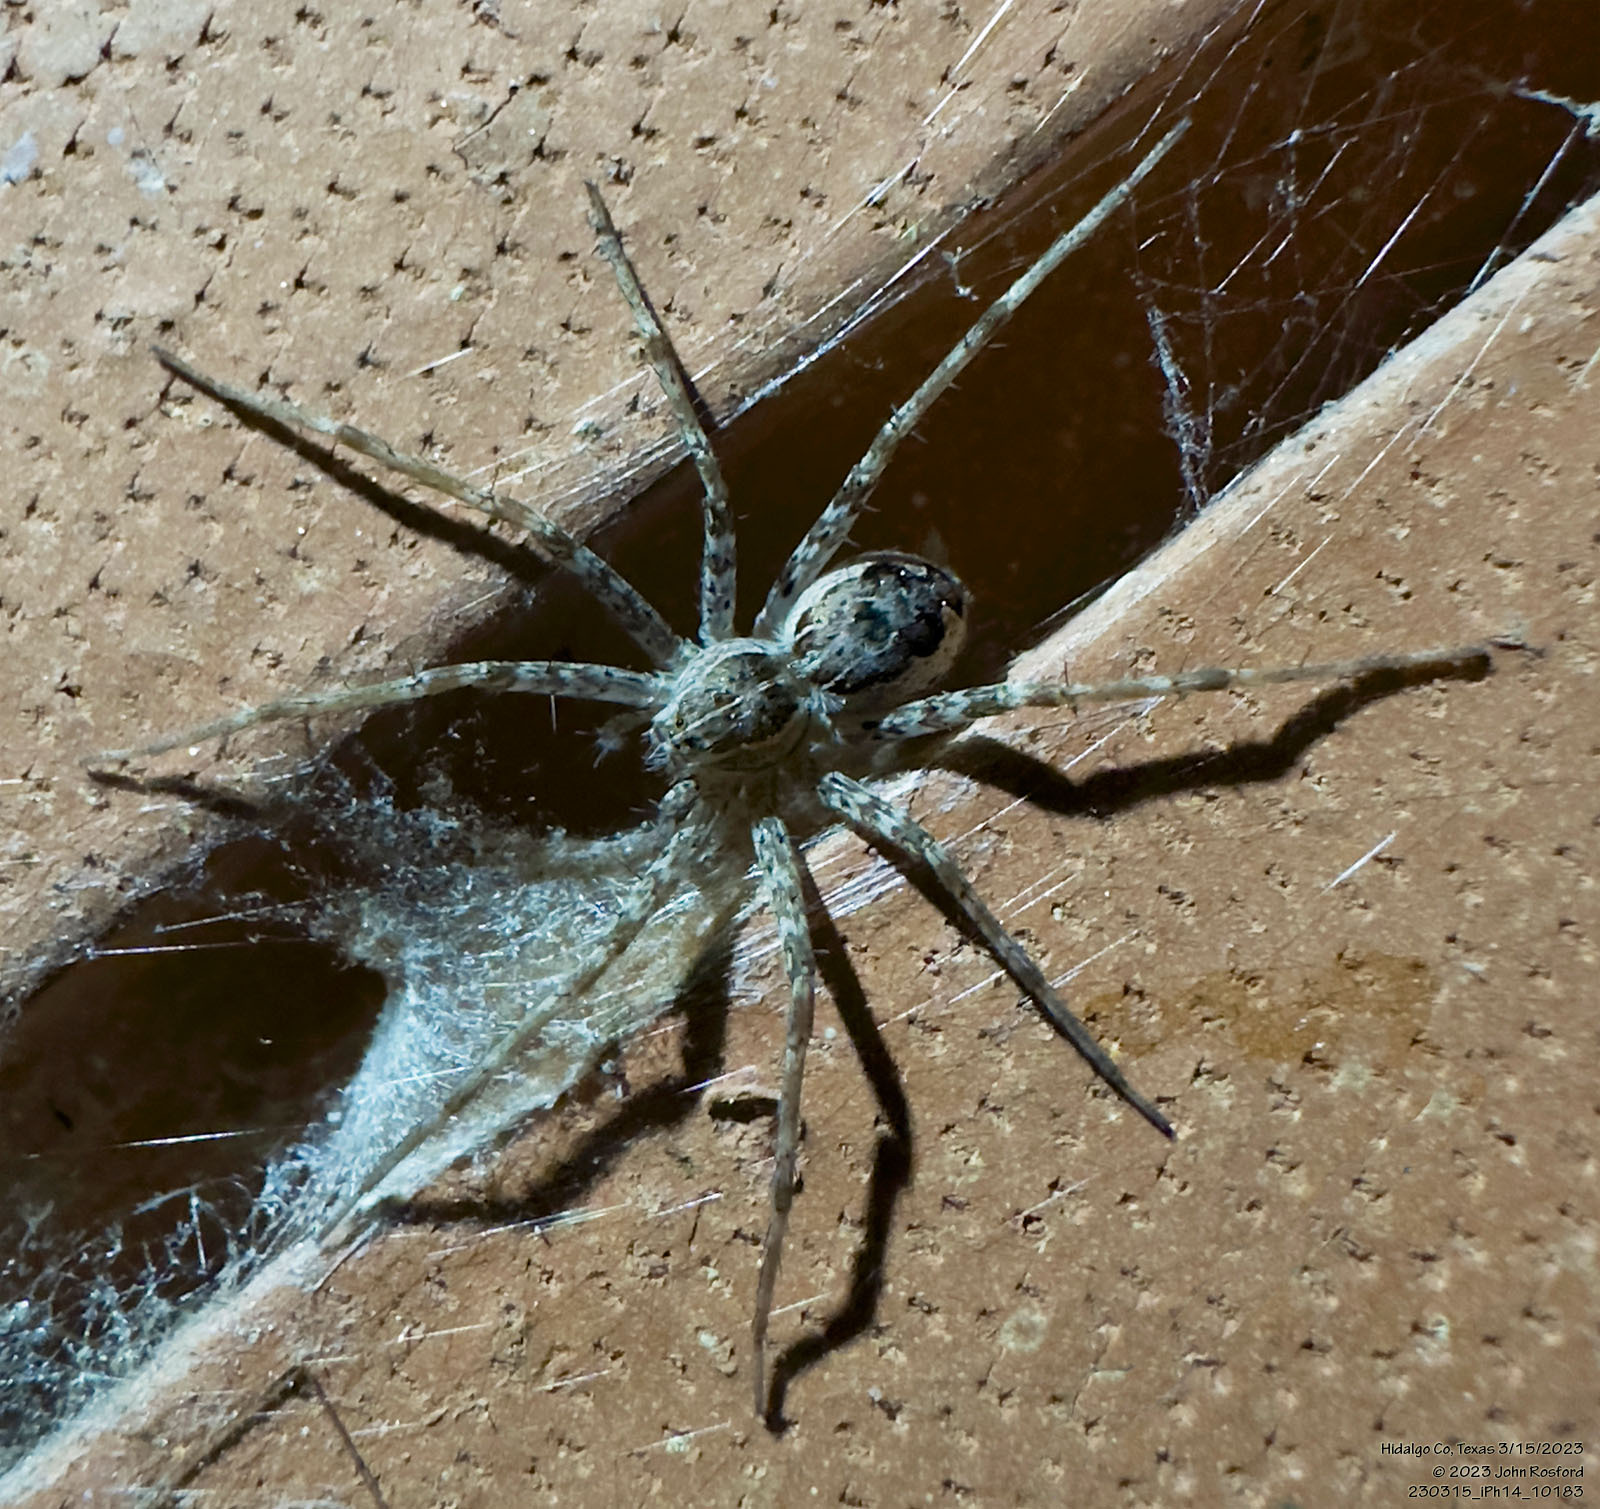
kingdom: Animalia
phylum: Arthropoda
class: Arachnida
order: Araneae
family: Pisauridae
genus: Tinus
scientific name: Tinus peregrinus
